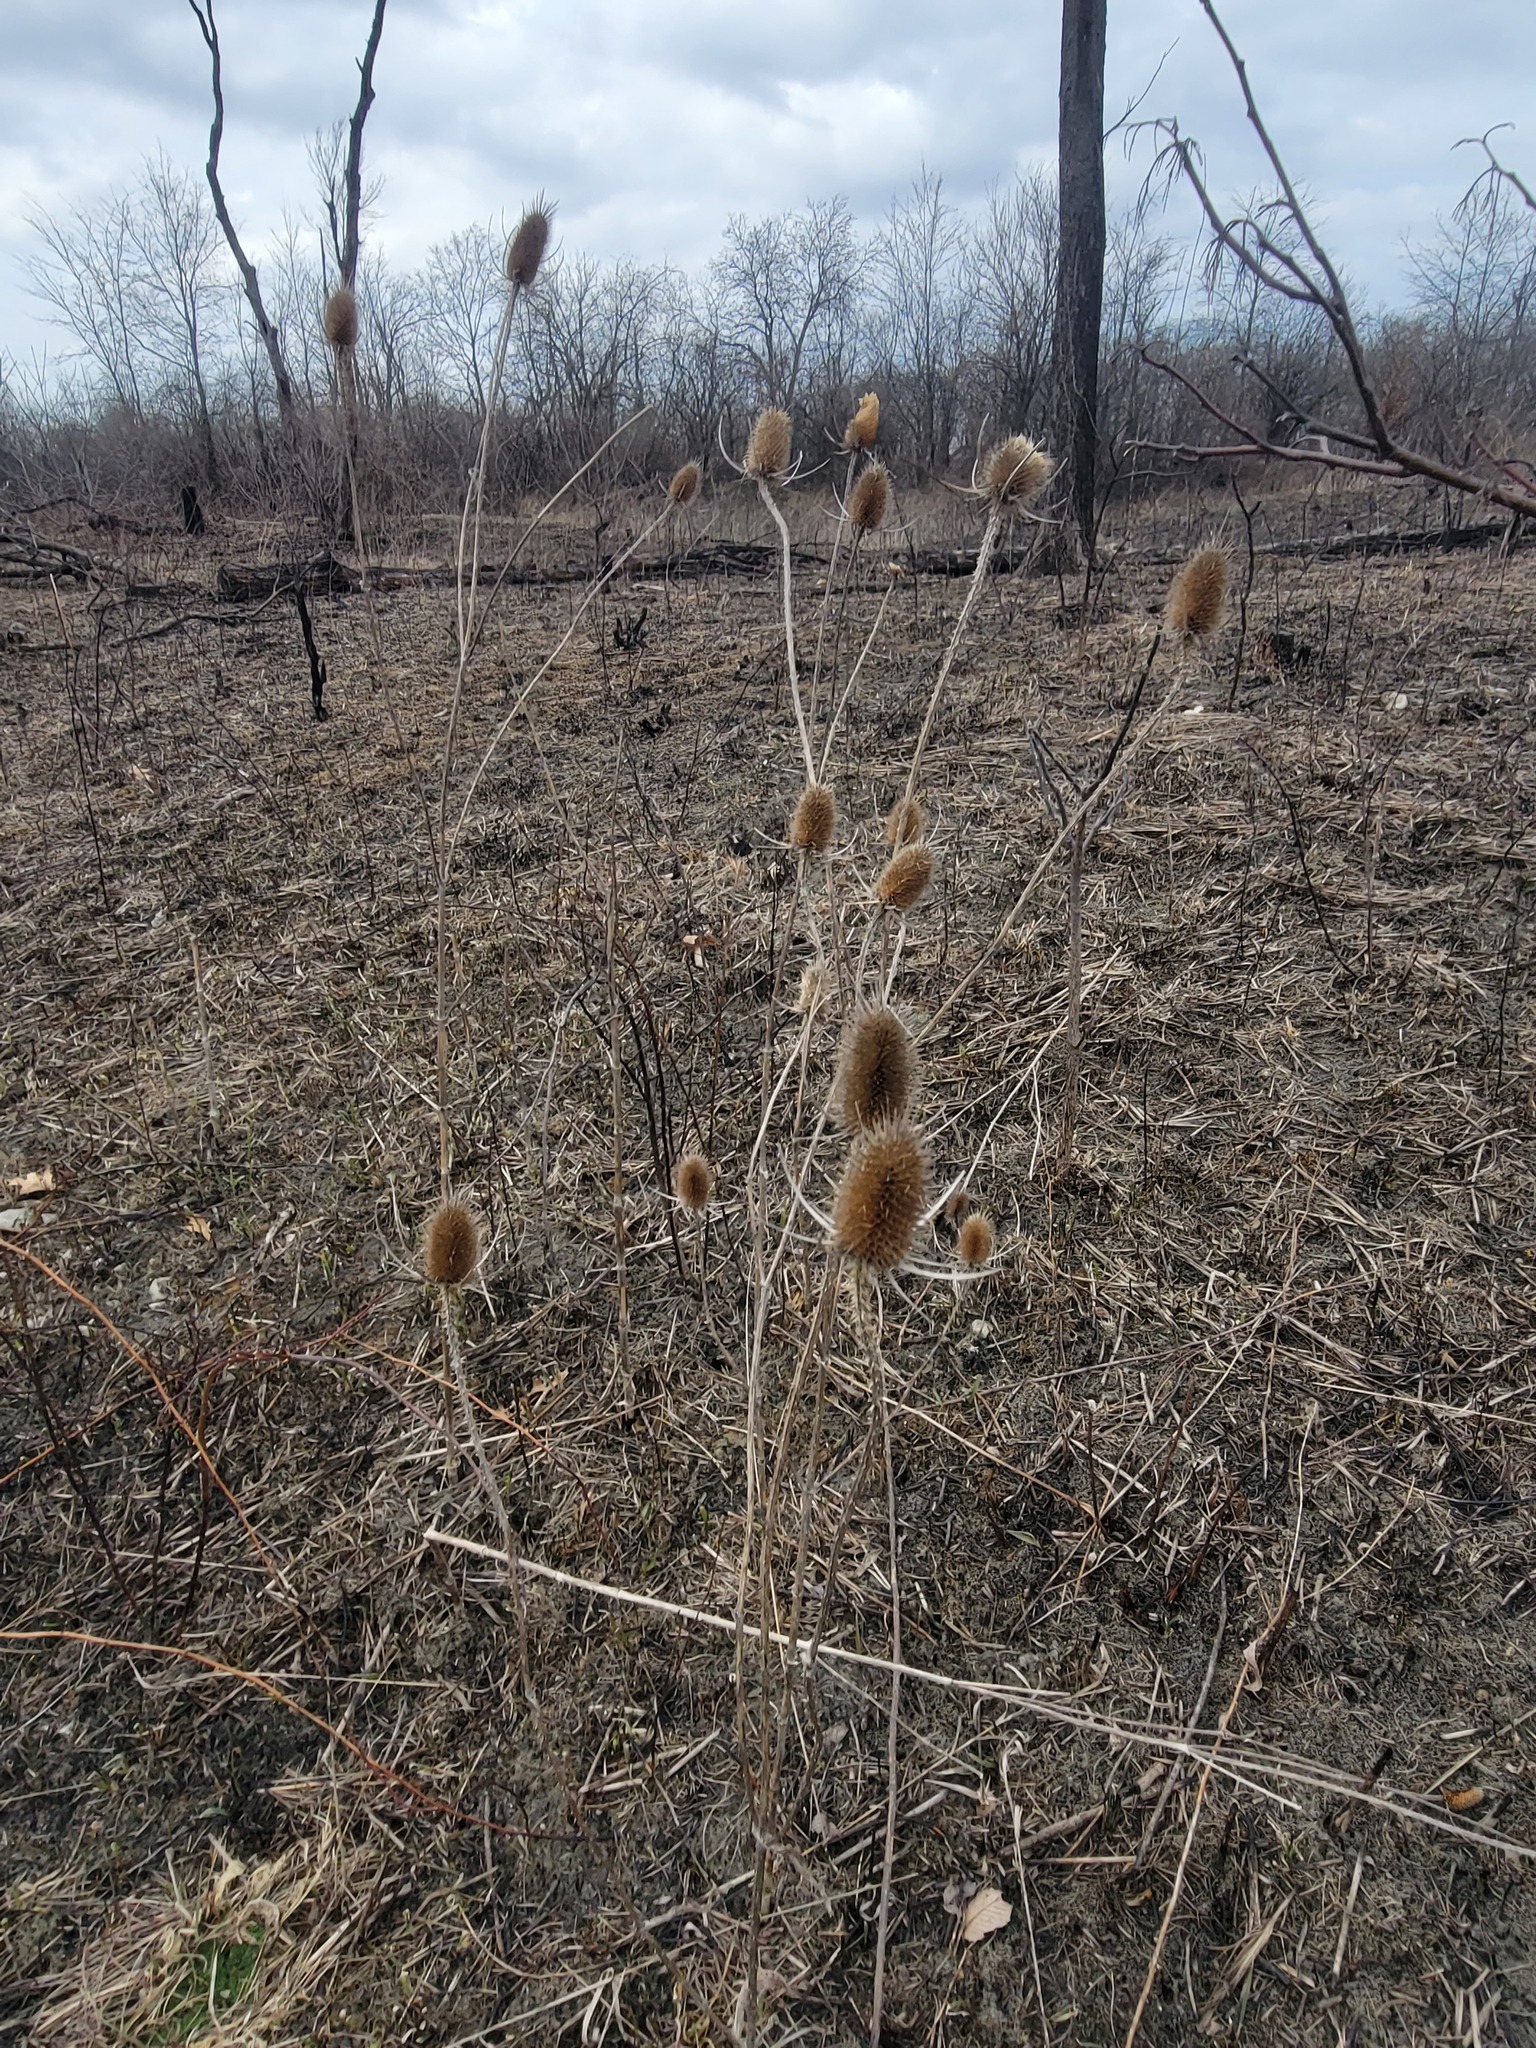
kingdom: Plantae
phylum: Tracheophyta
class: Magnoliopsida
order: Dipsacales
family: Caprifoliaceae
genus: Dipsacus
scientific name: Dipsacus fullonum
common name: Teasel
